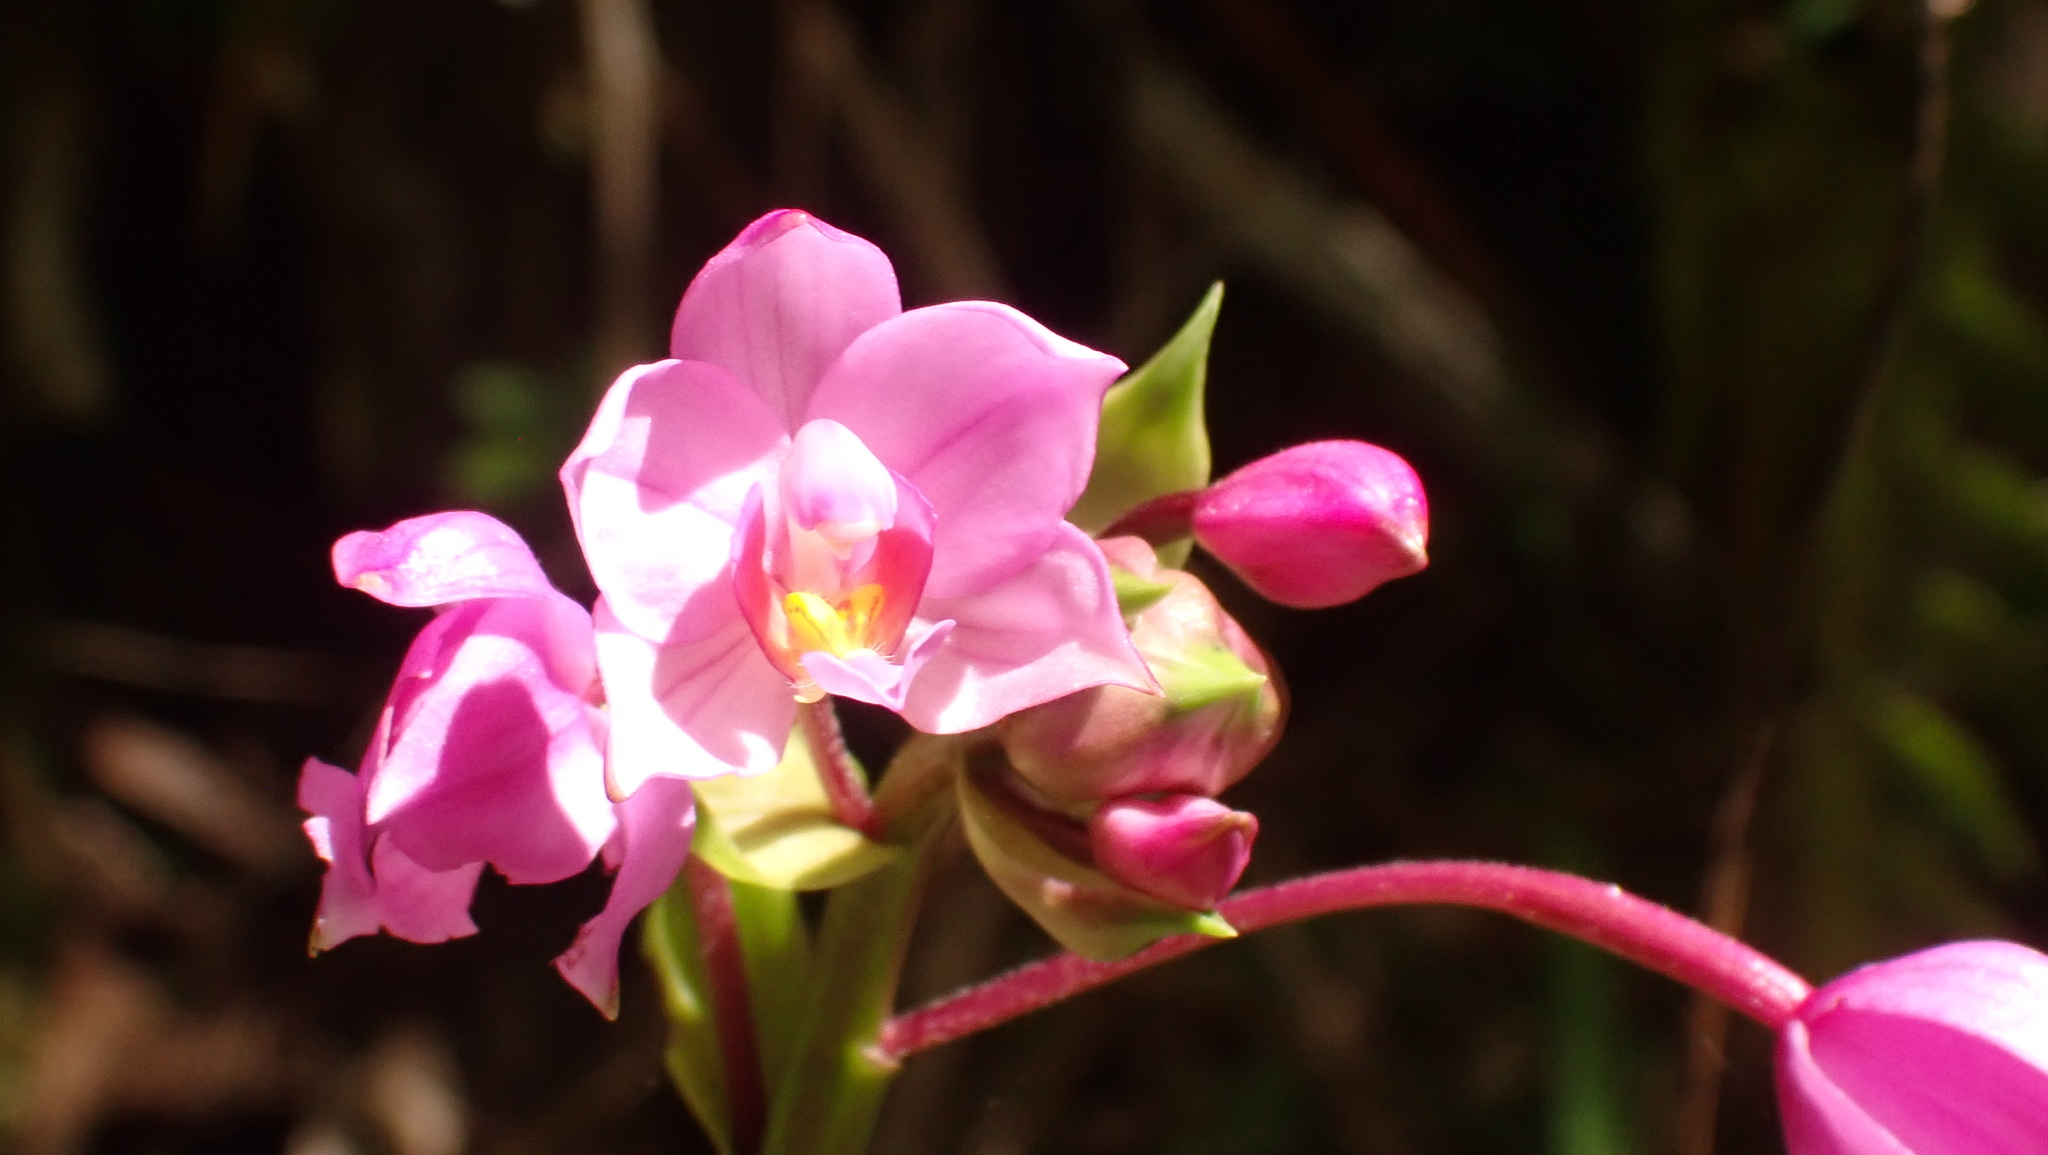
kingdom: Plantae
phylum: Tracheophyta
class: Liliopsida
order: Asparagales
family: Orchidaceae
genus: Spathoglottis
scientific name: Spathoglottis plicata
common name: Philippine ground orchid
